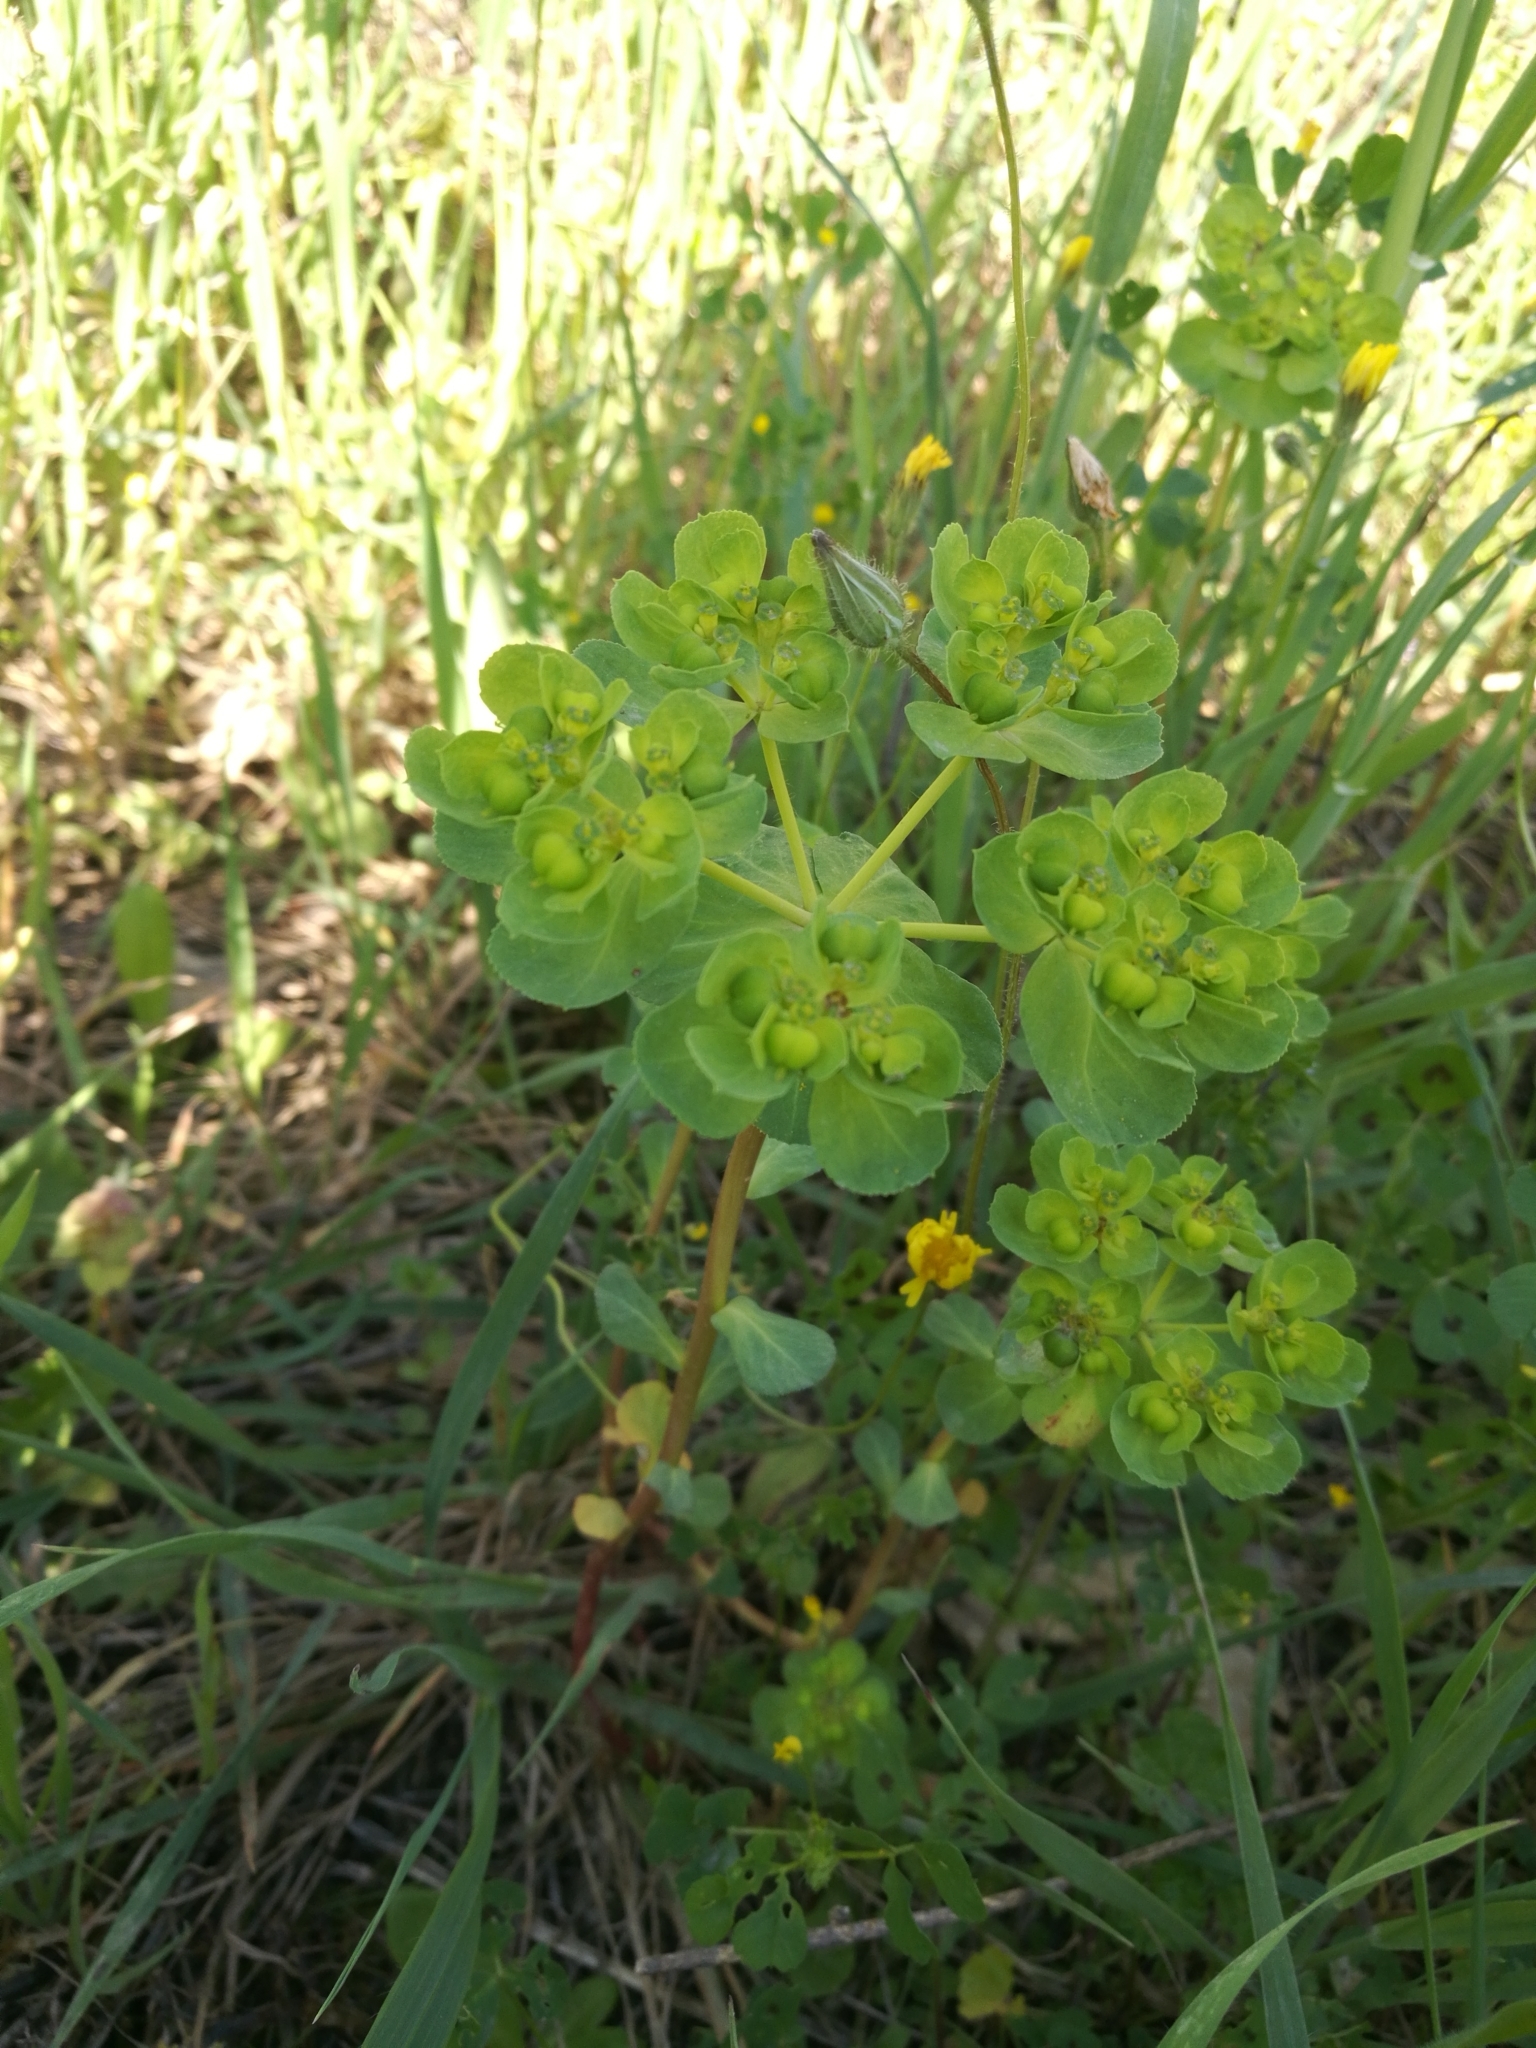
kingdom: Plantae
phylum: Tracheophyta
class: Magnoliopsida
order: Malpighiales
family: Euphorbiaceae
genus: Euphorbia
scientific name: Euphorbia helioscopia
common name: Sun spurge
